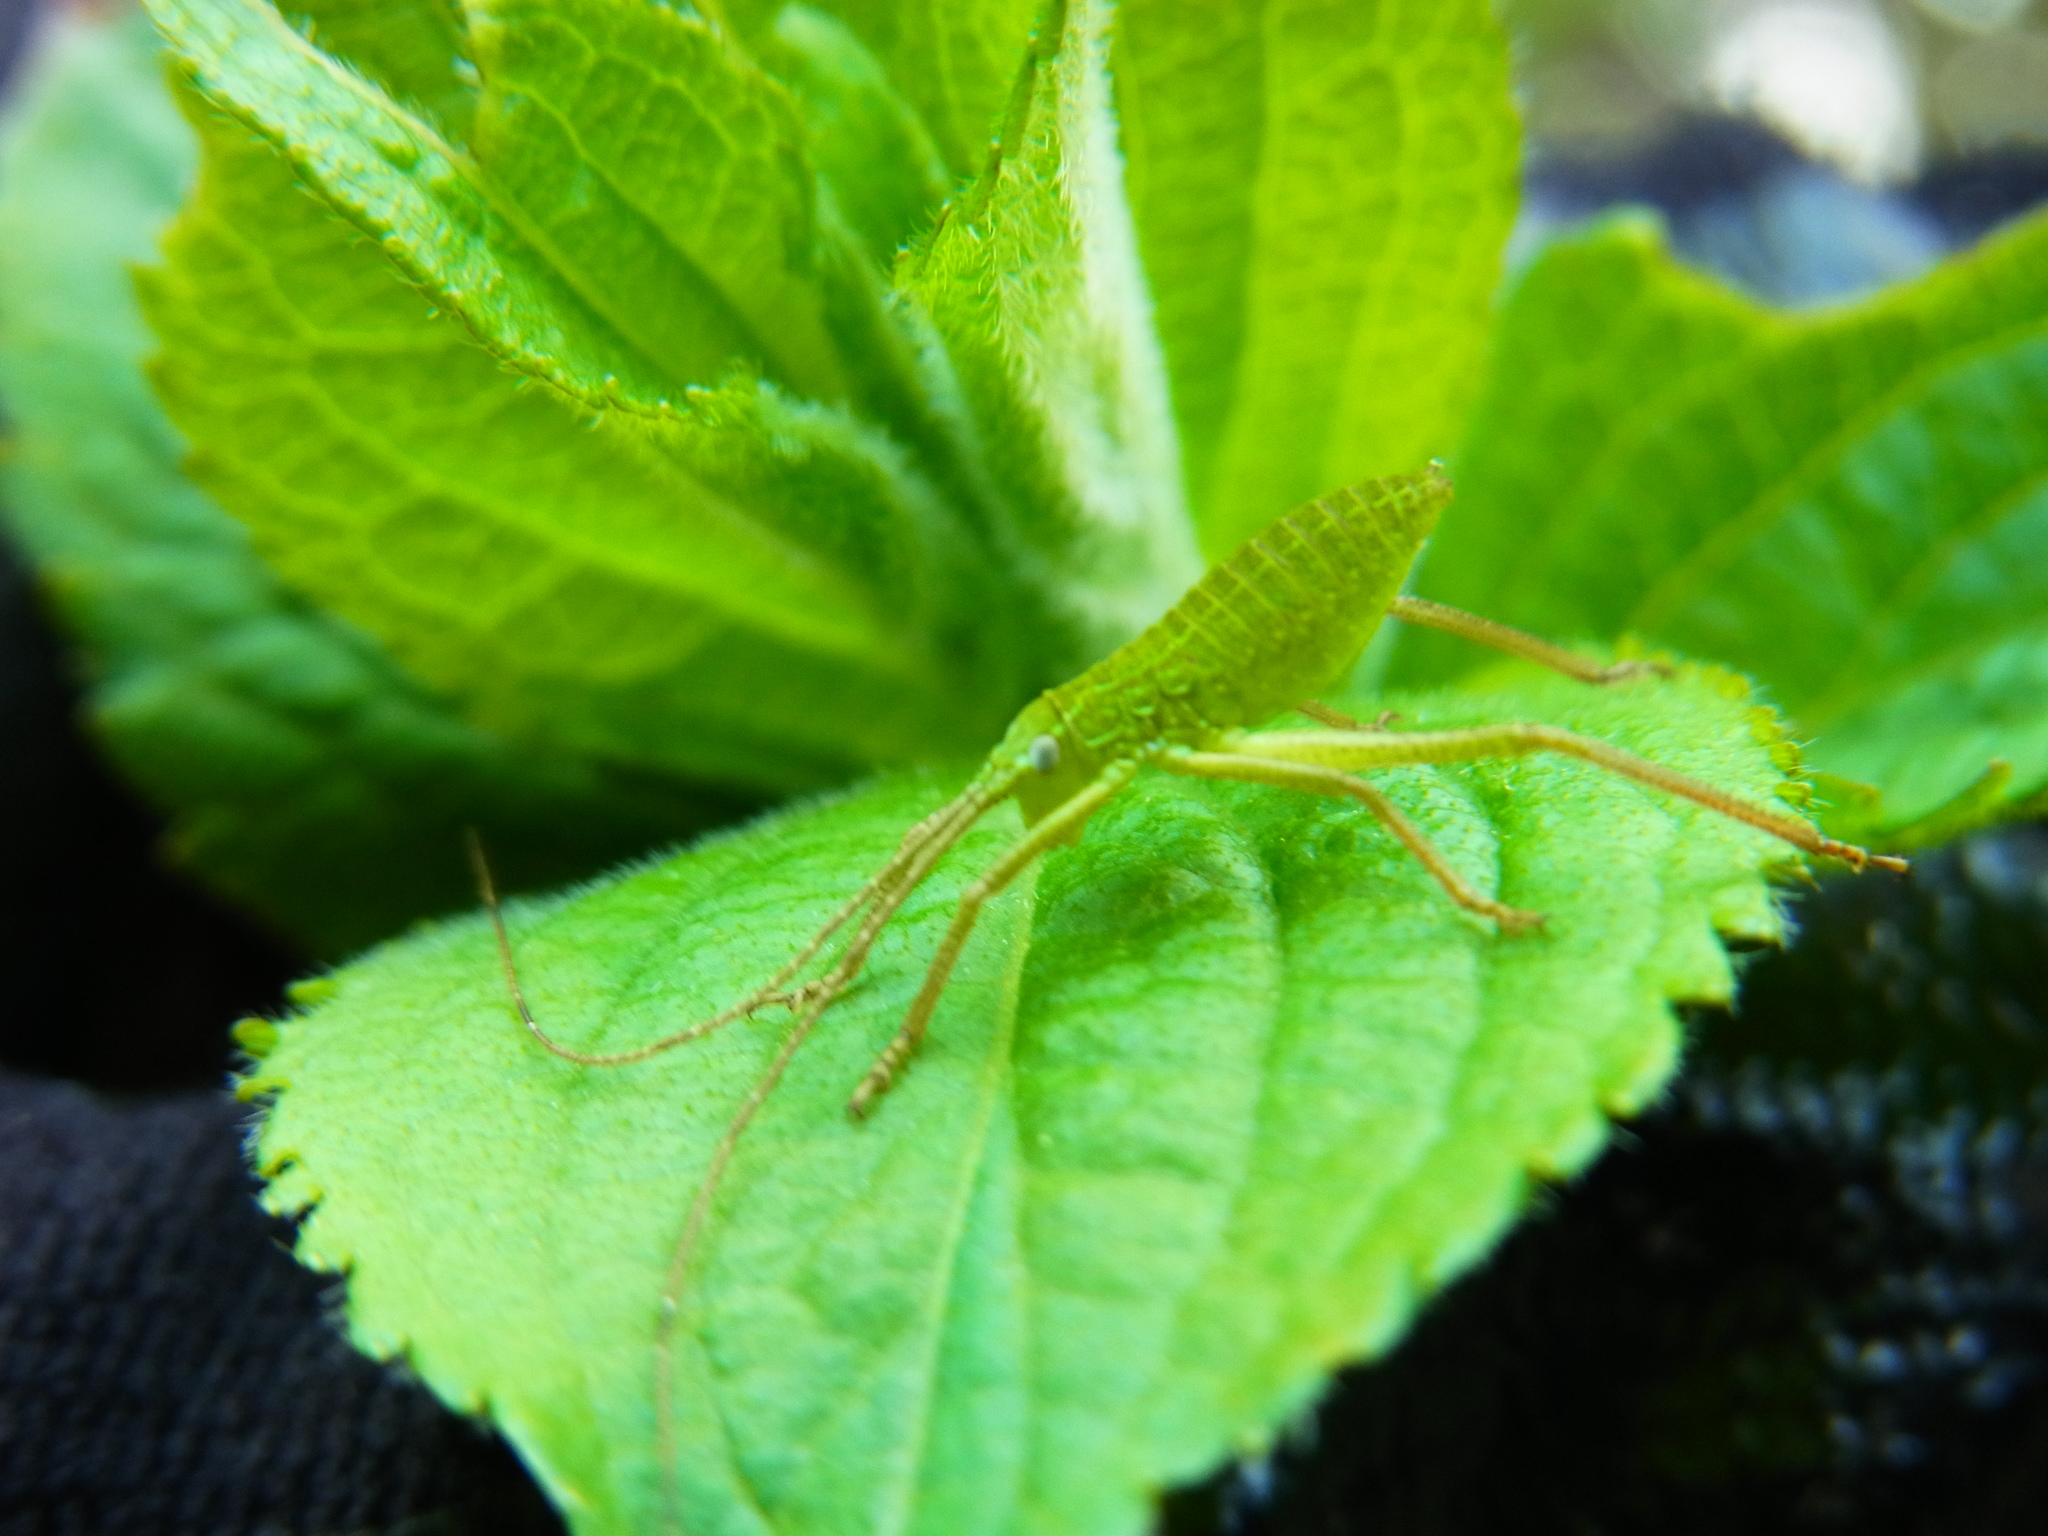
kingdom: Animalia
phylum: Arthropoda
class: Insecta
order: Orthoptera
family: Tettigoniidae
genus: Shirakisotima
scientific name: Shirakisotima japonica
